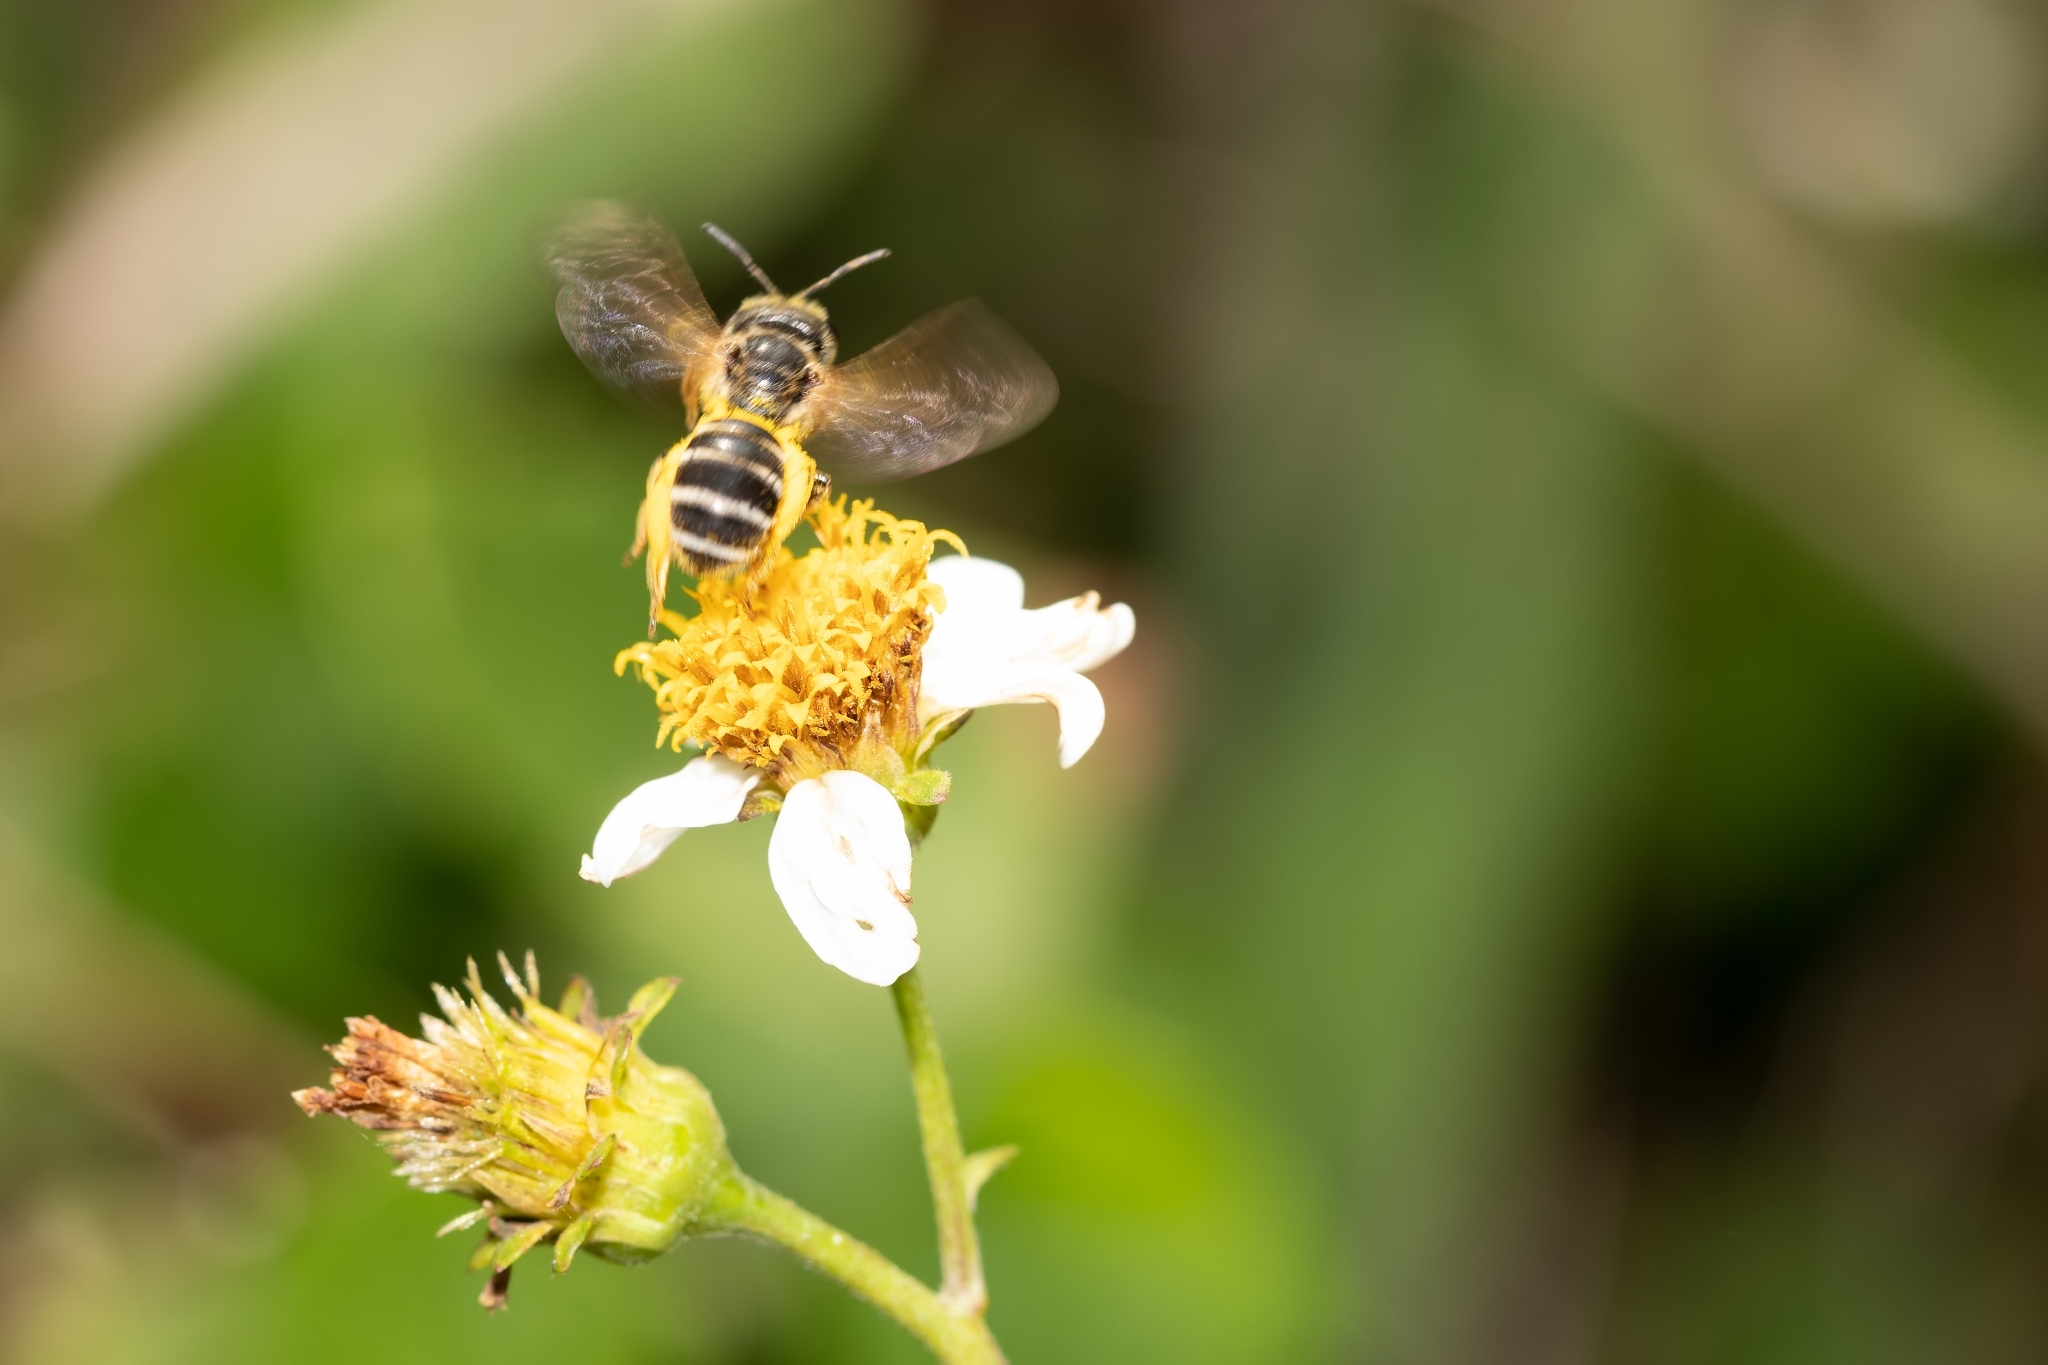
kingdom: Animalia
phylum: Arthropoda
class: Insecta
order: Hymenoptera
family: Halictidae
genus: Halictus
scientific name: Halictus poeyi
